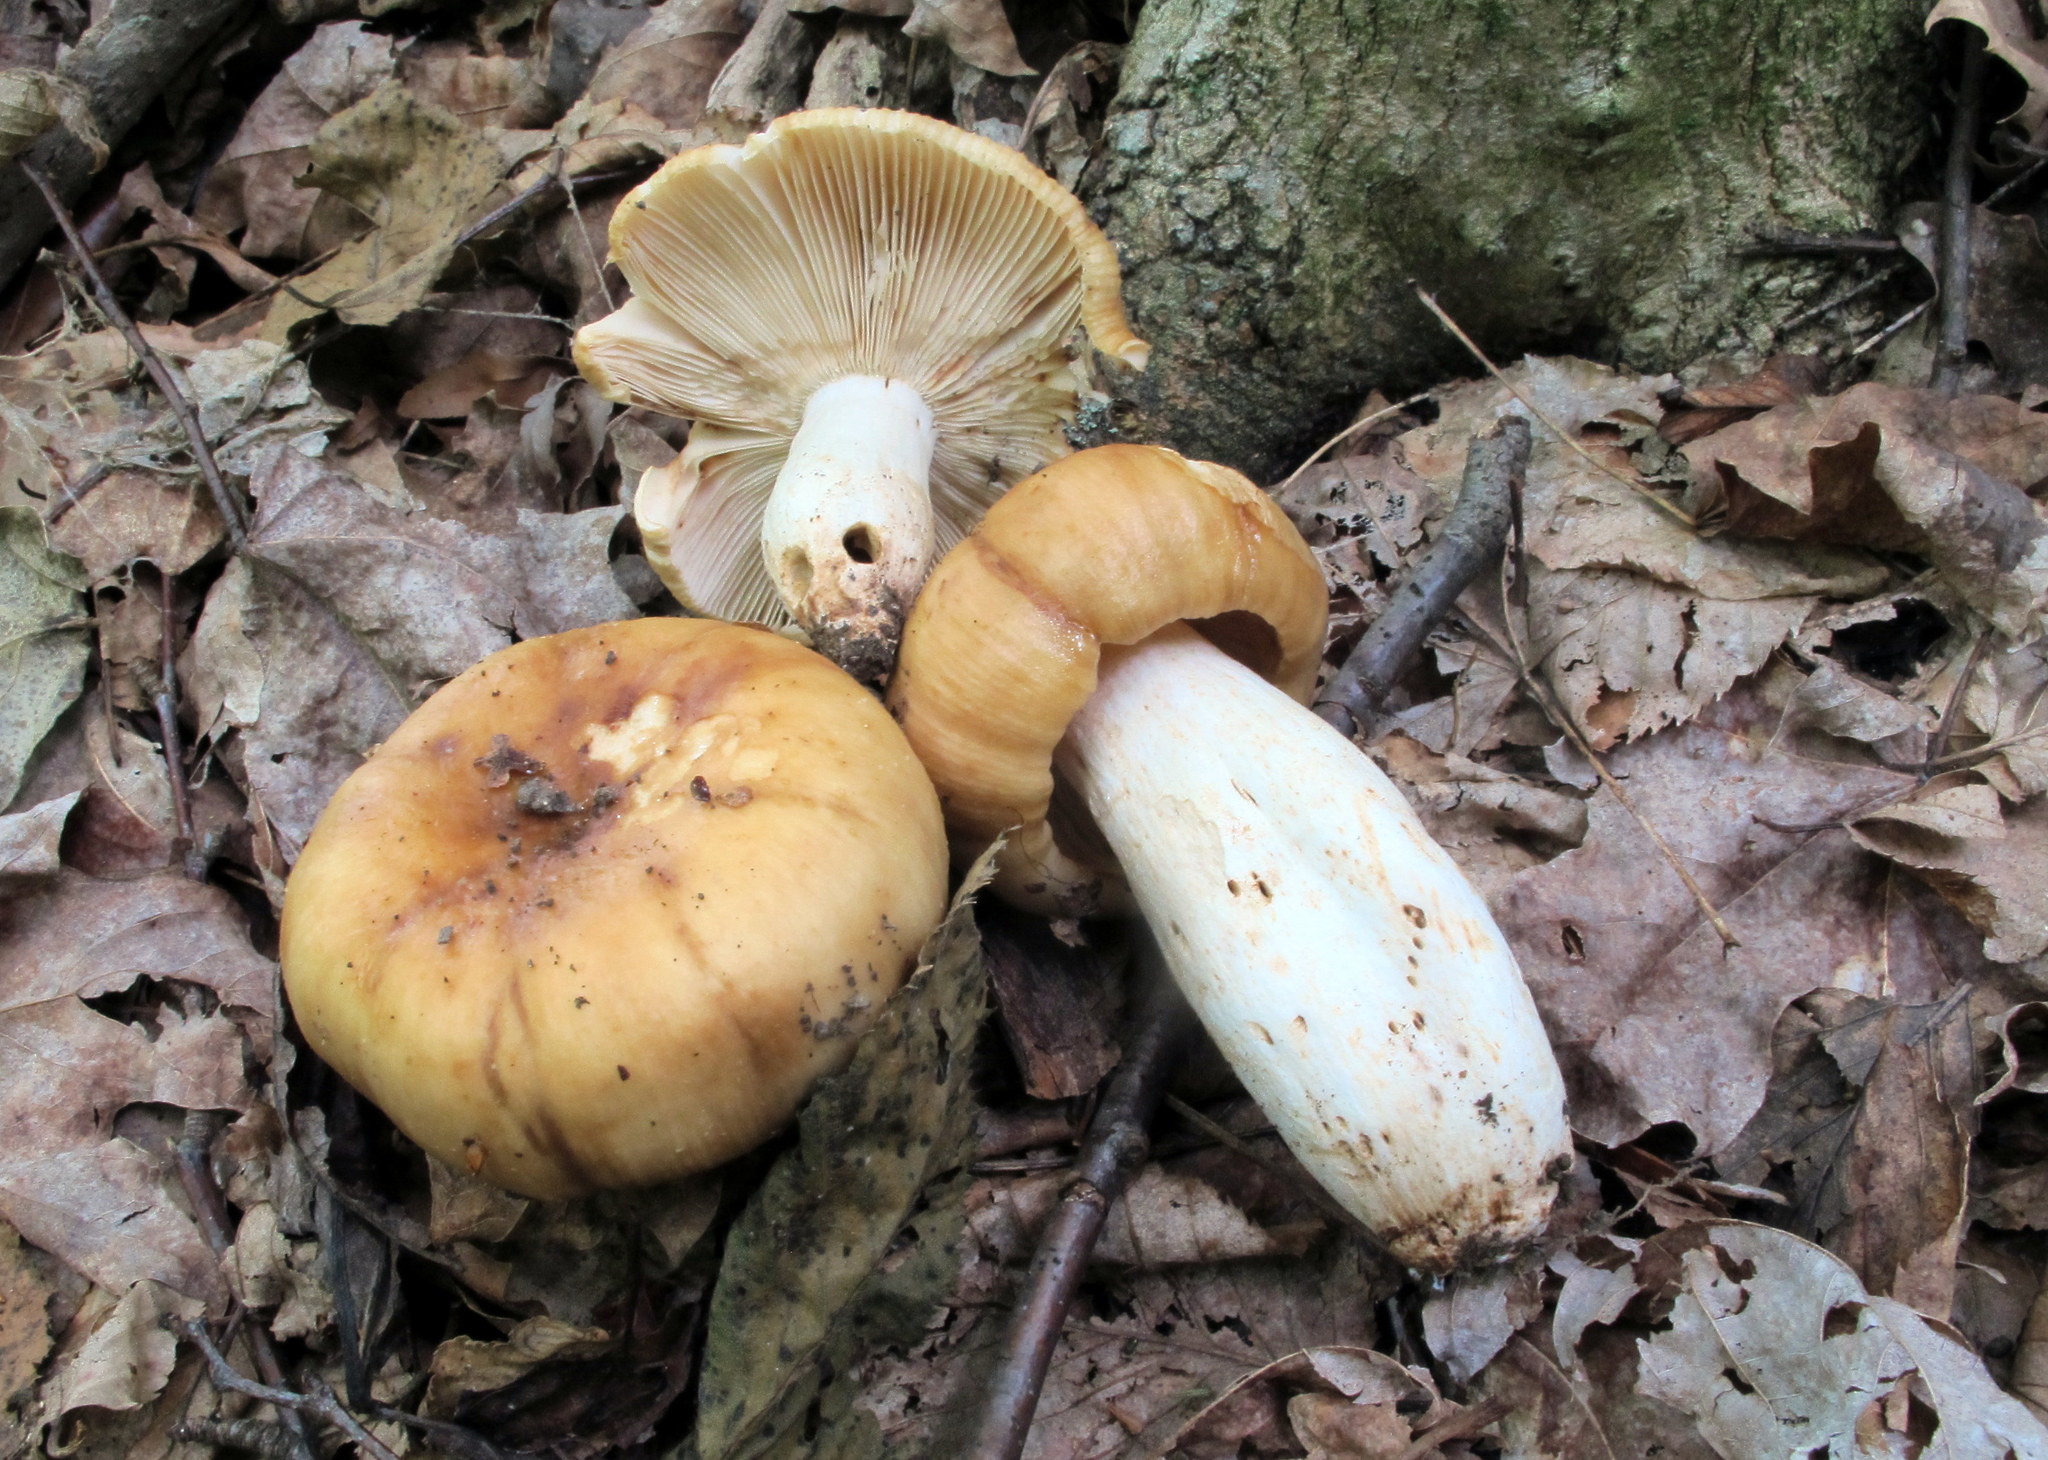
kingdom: Fungi
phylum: Basidiomycota
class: Agaricomycetes
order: Russulales
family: Russulaceae
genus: Russula
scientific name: Russula grata
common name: Bitter almond brittlegill
